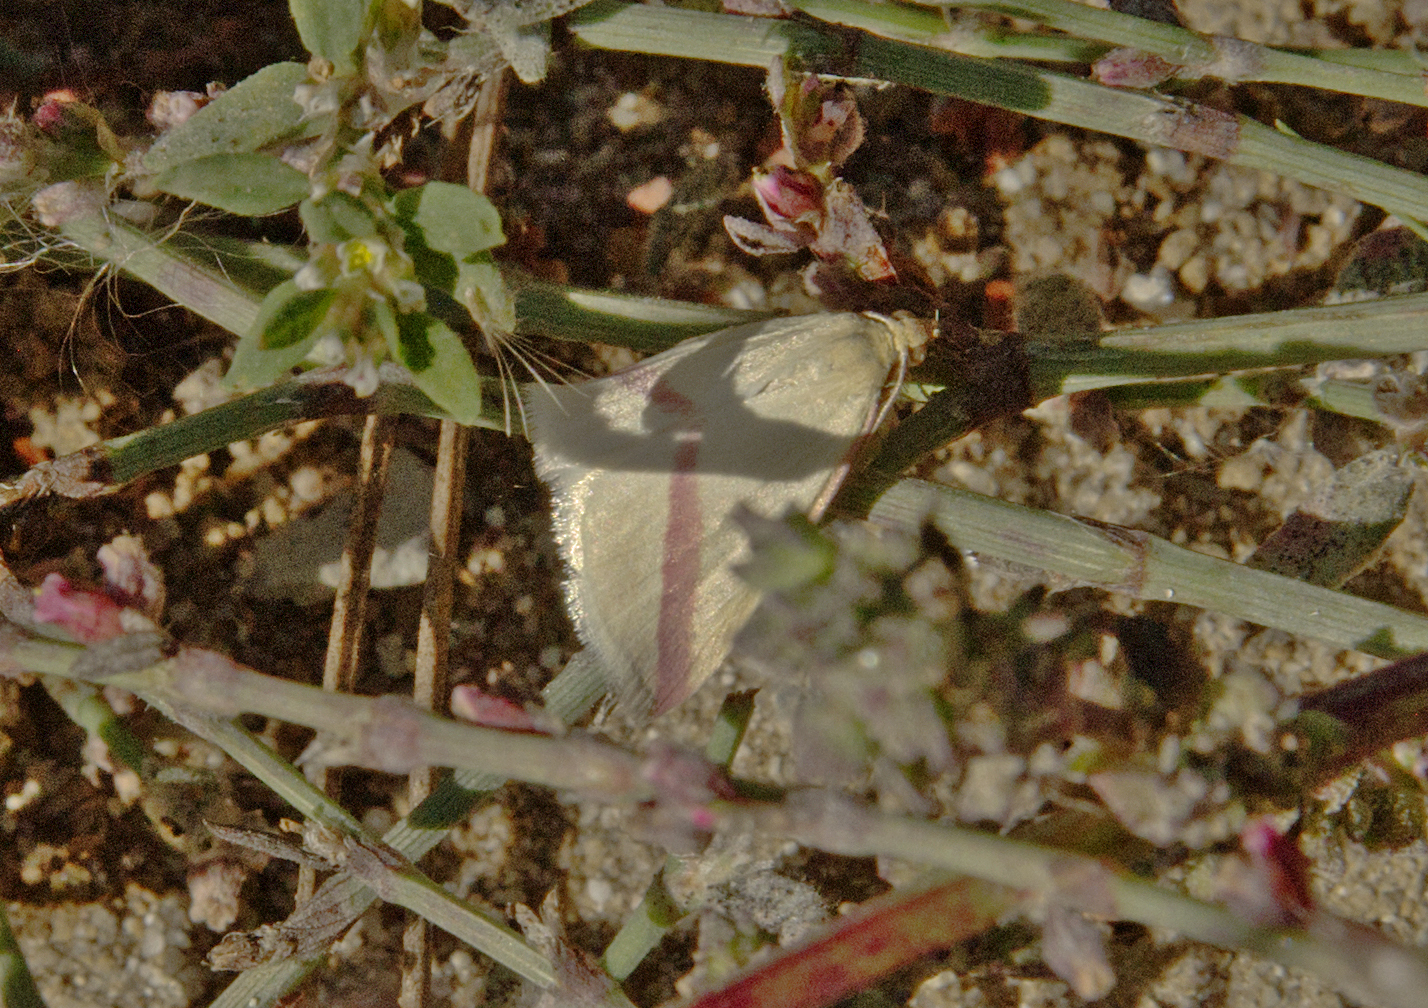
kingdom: Animalia
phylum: Arthropoda
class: Insecta
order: Lepidoptera
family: Geometridae
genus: Rhodometra
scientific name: Rhodometra sacraria
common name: Vestal
